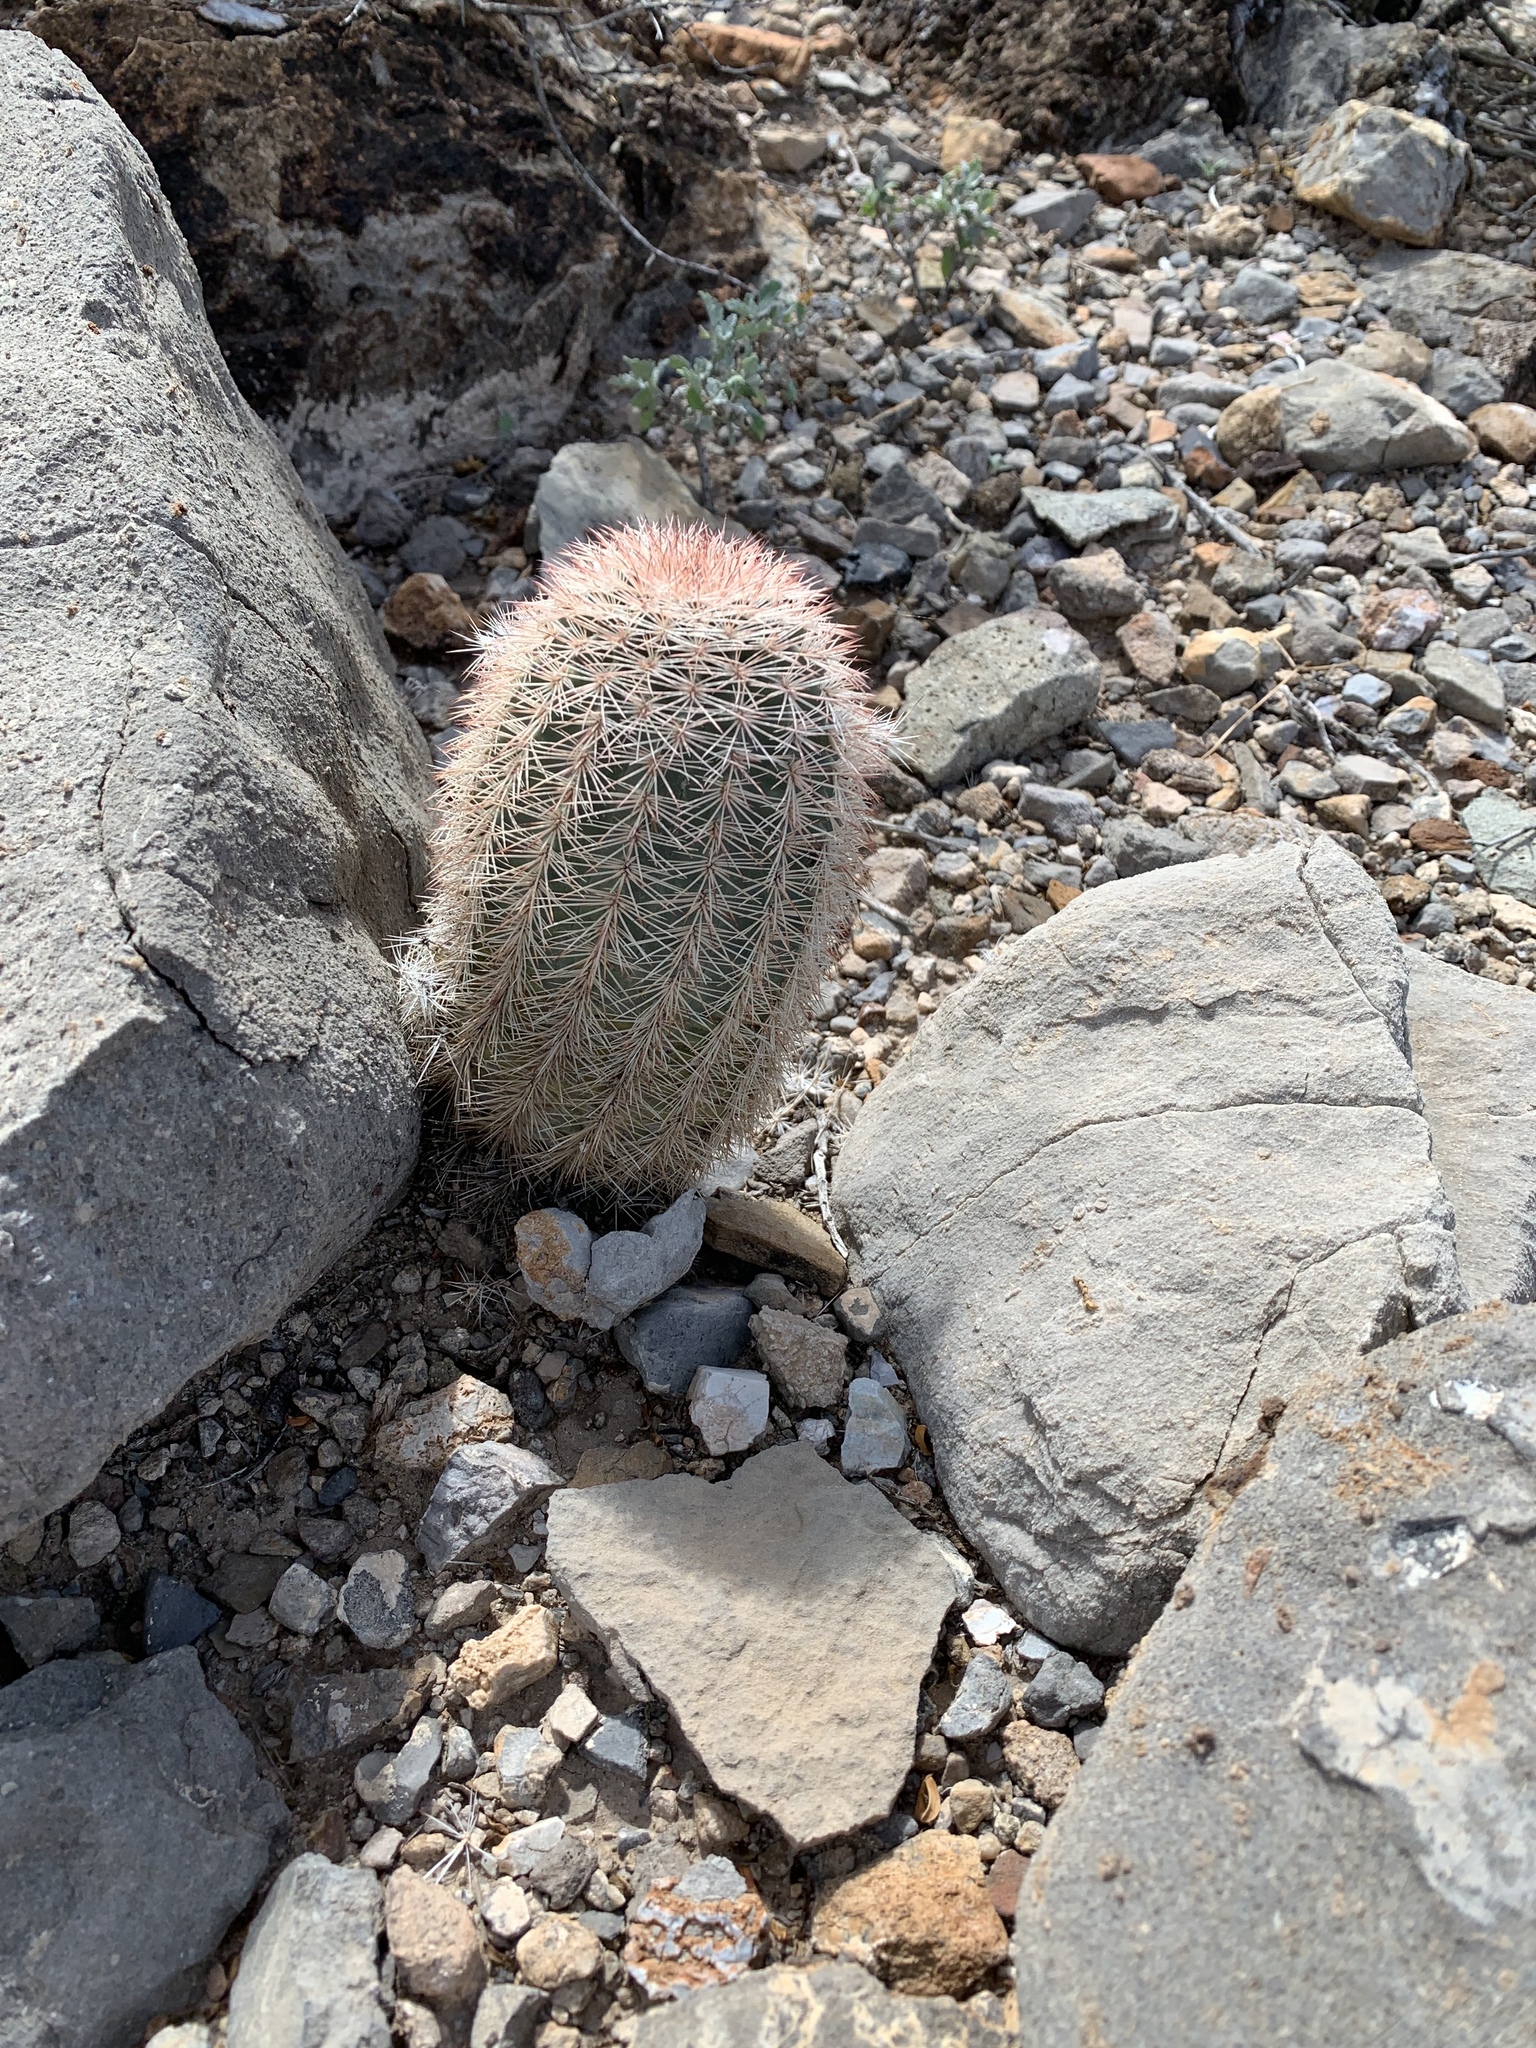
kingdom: Plantae
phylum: Tracheophyta
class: Magnoliopsida
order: Caryophyllales
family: Cactaceae
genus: Echinocereus
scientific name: Echinocereus dasyacanthus
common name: Spiny hedgehog cactus
